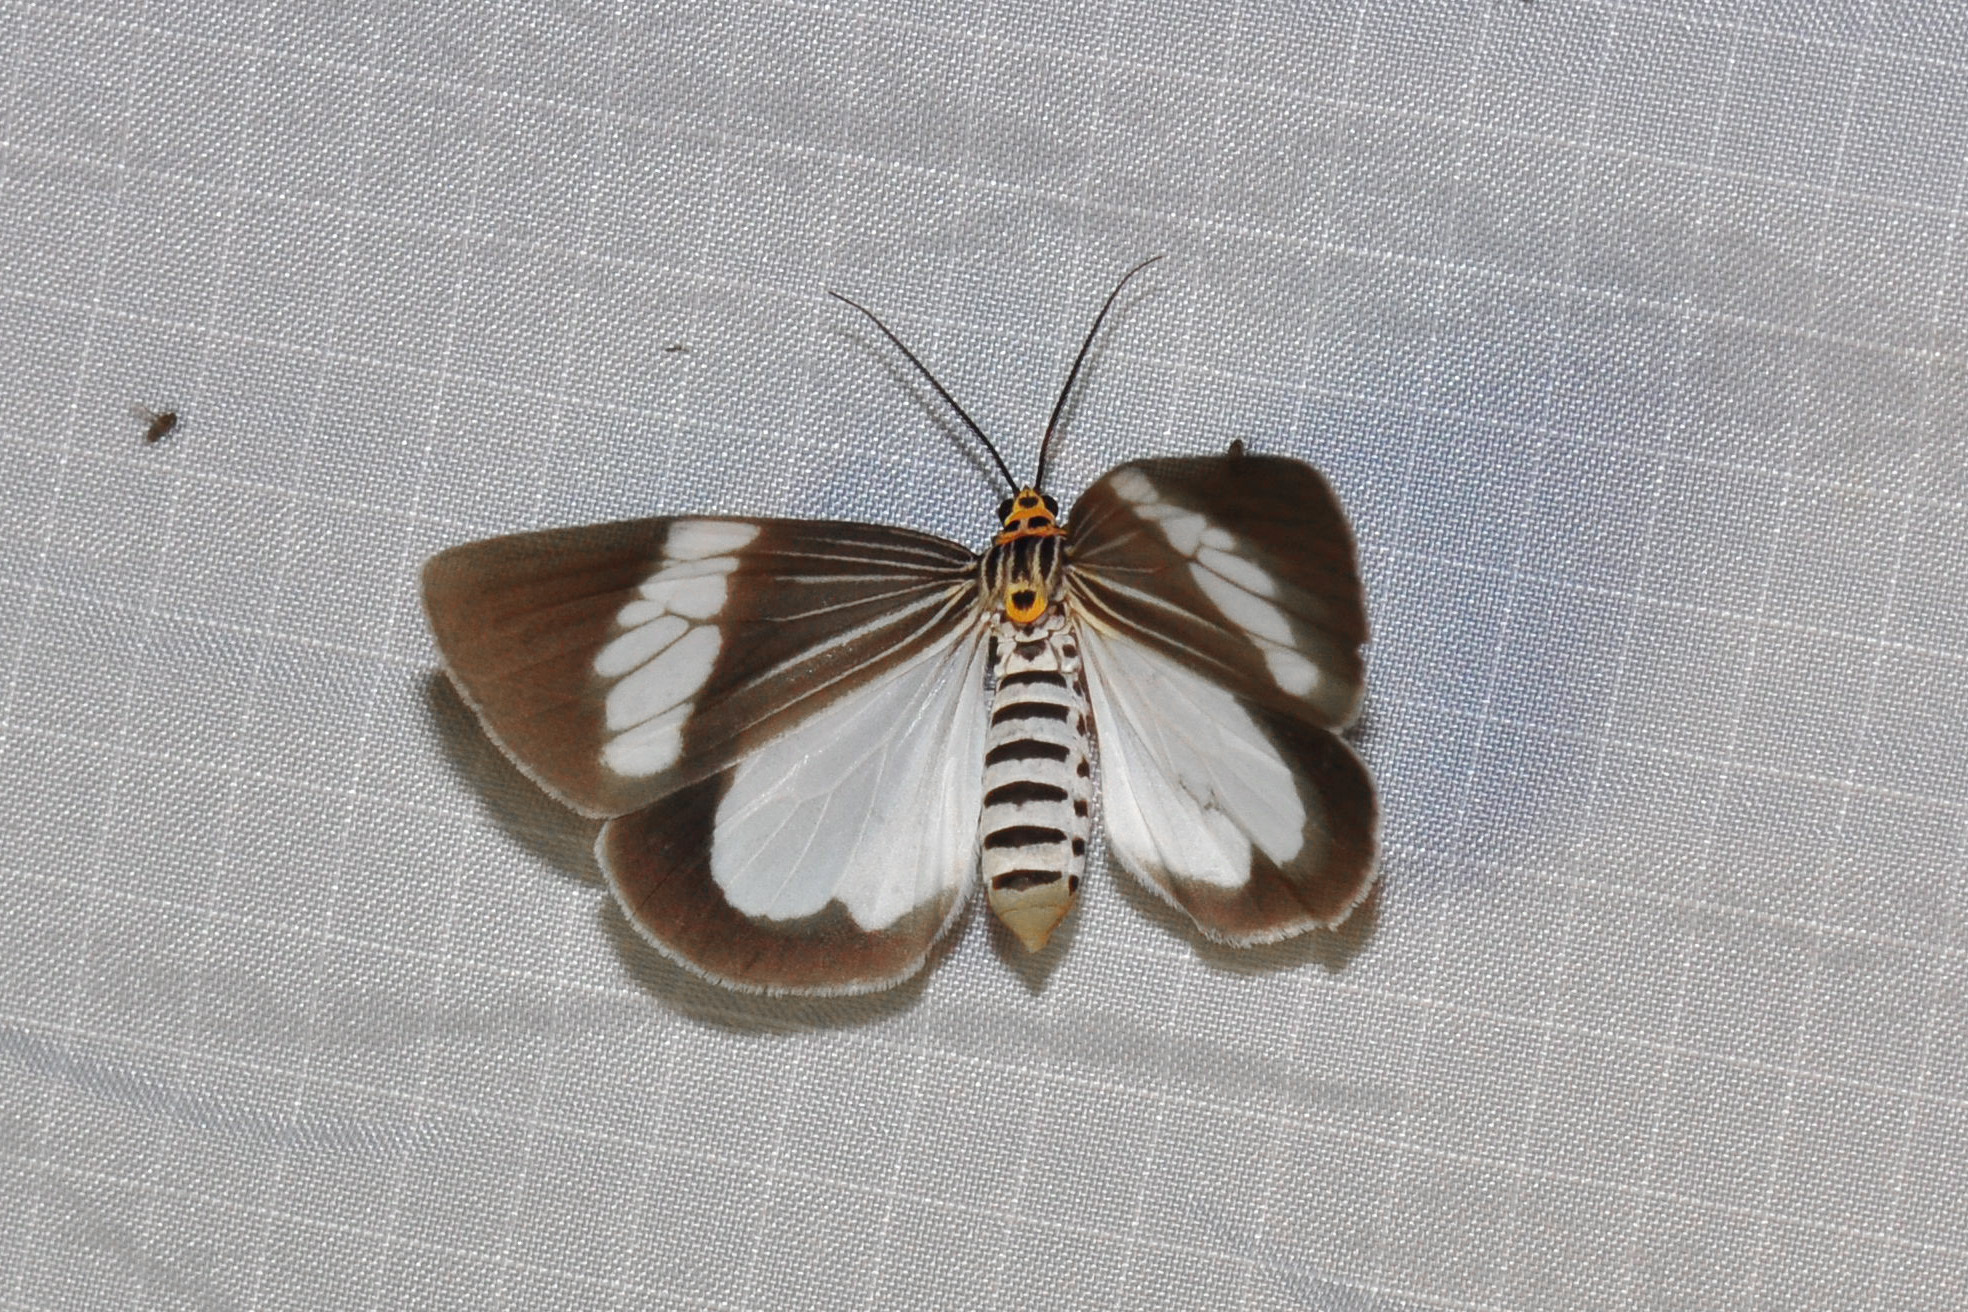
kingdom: Animalia
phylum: Arthropoda
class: Insecta
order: Lepidoptera
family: Erebidae
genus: Nyctemera
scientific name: Nyctemera baulus
